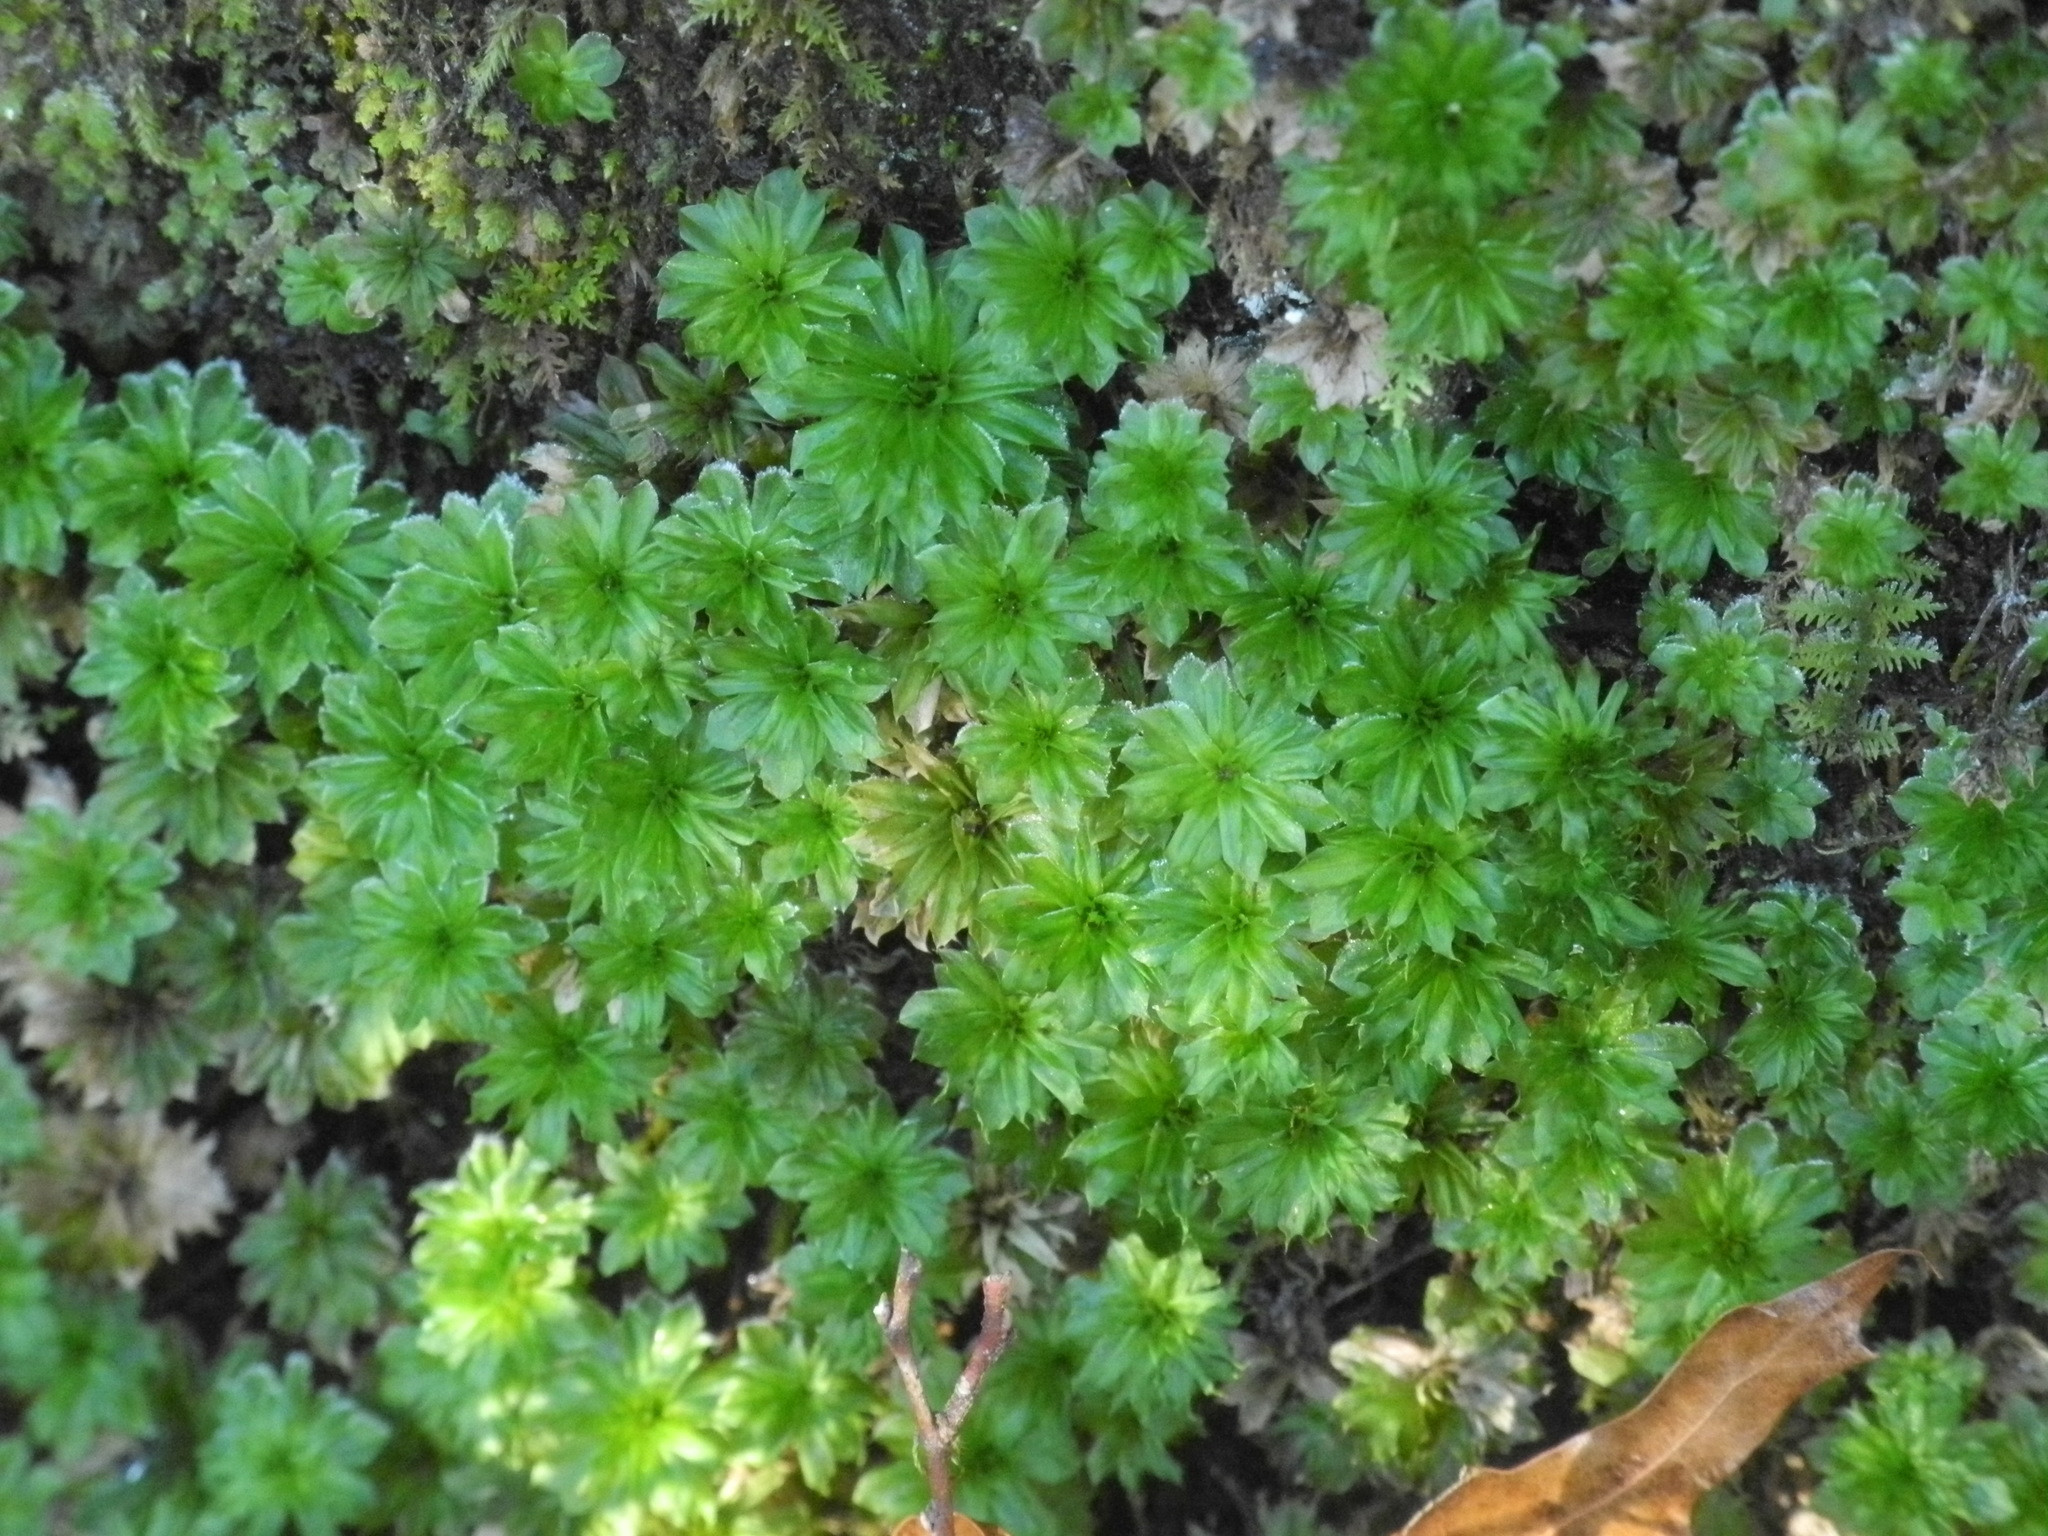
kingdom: Plantae
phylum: Bryophyta
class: Bryopsida
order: Bryales
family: Bryaceae
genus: Rhodobryum
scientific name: Rhodobryum ontariense
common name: Ontario rhodobryum moss
